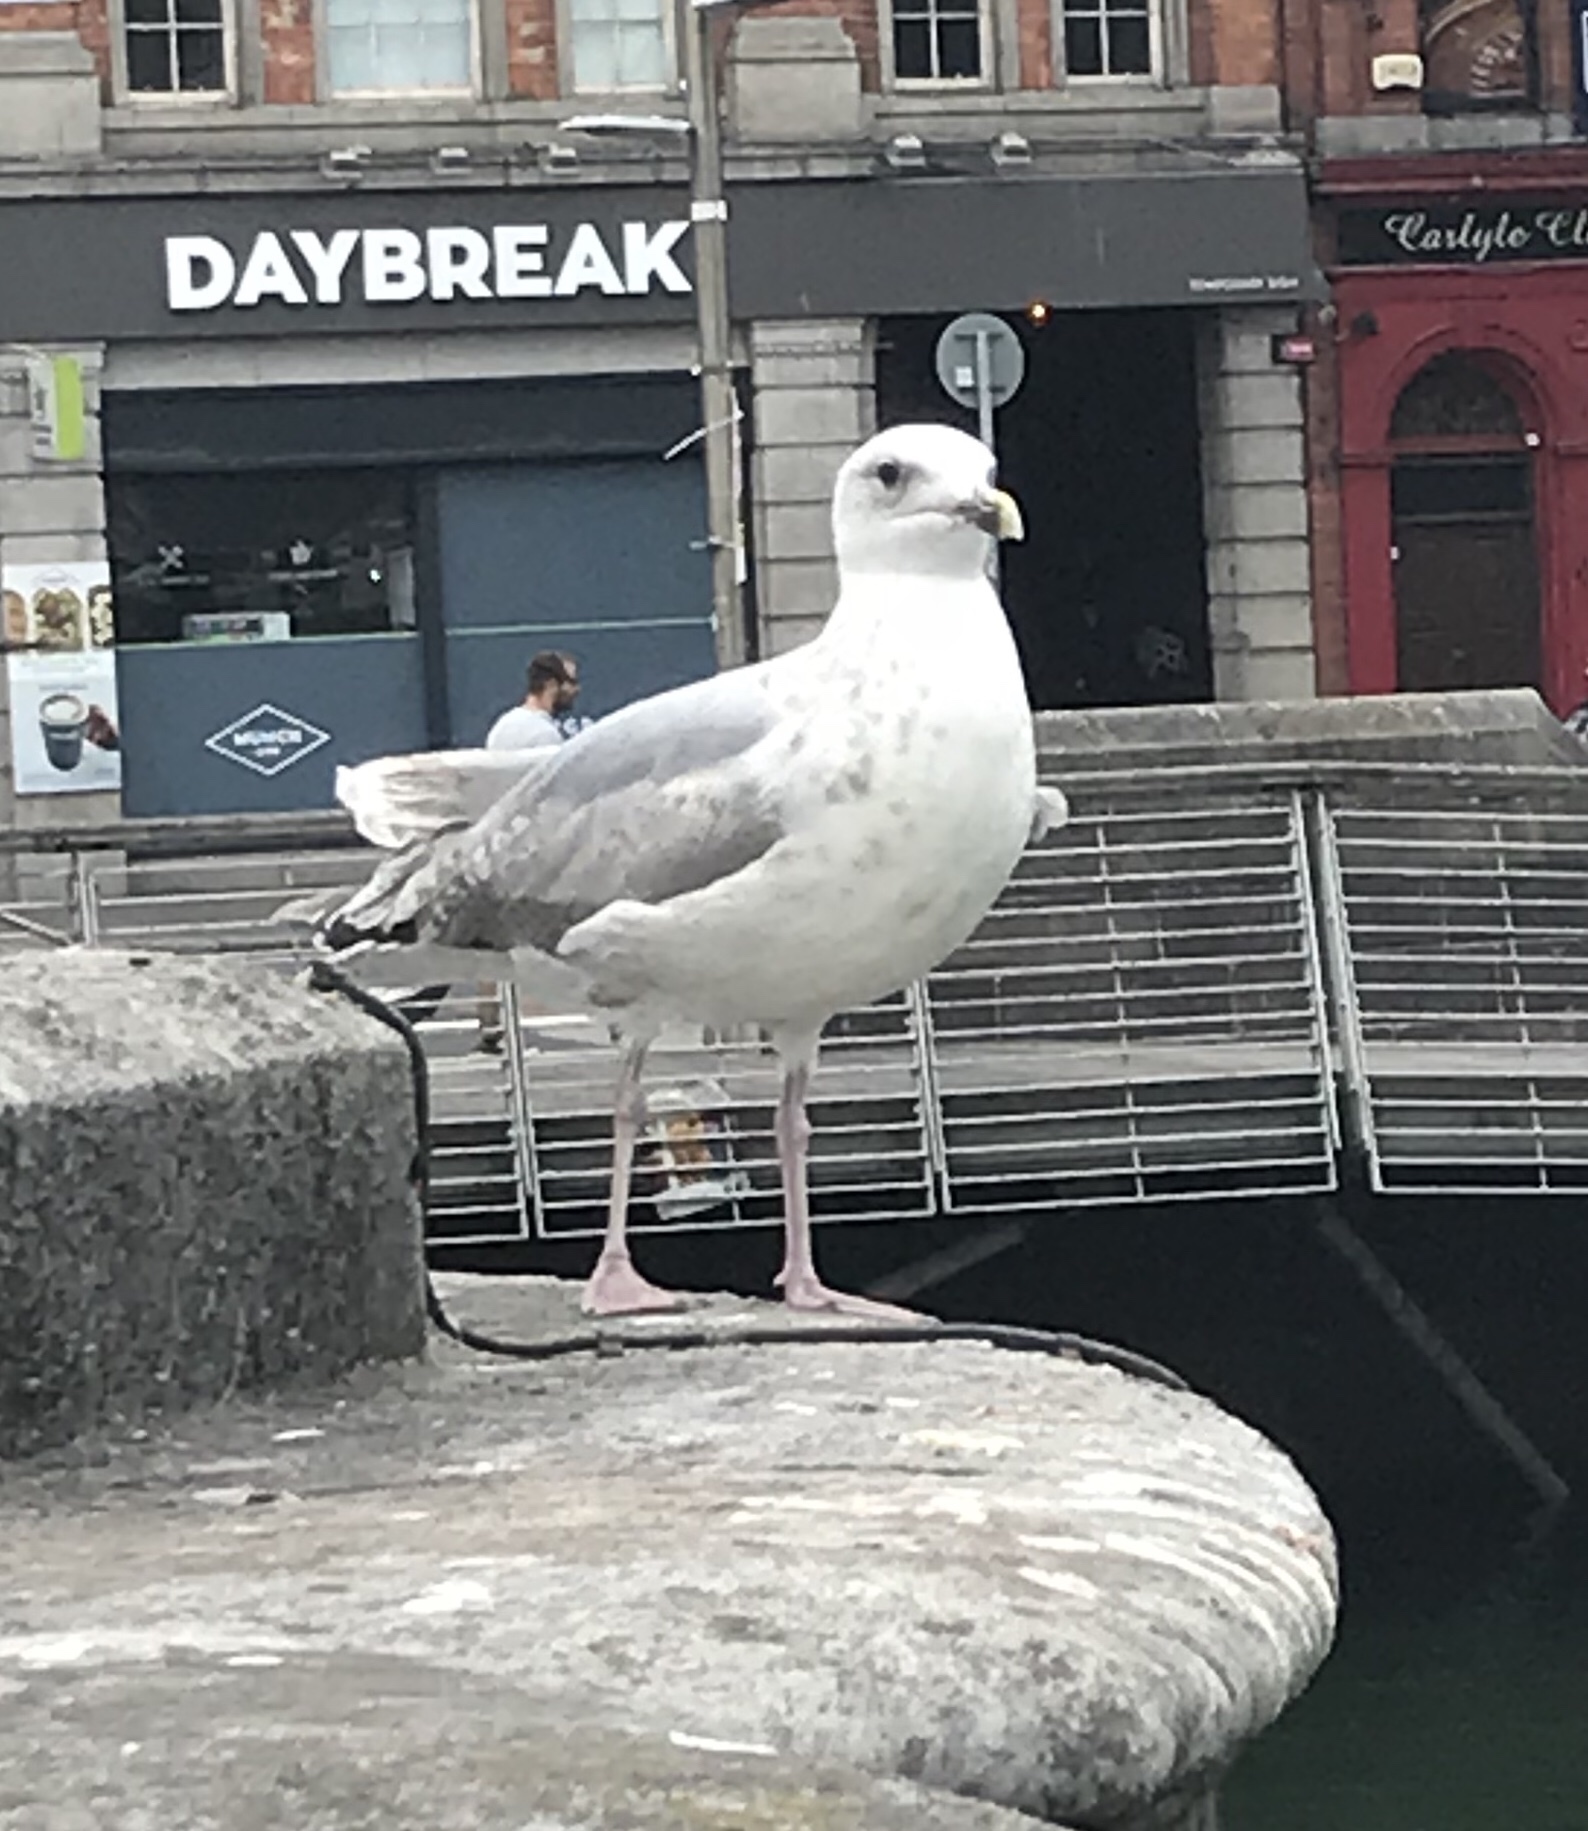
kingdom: Animalia
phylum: Chordata
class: Aves
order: Charadriiformes
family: Laridae
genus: Larus
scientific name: Larus argentatus
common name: Herring gull
